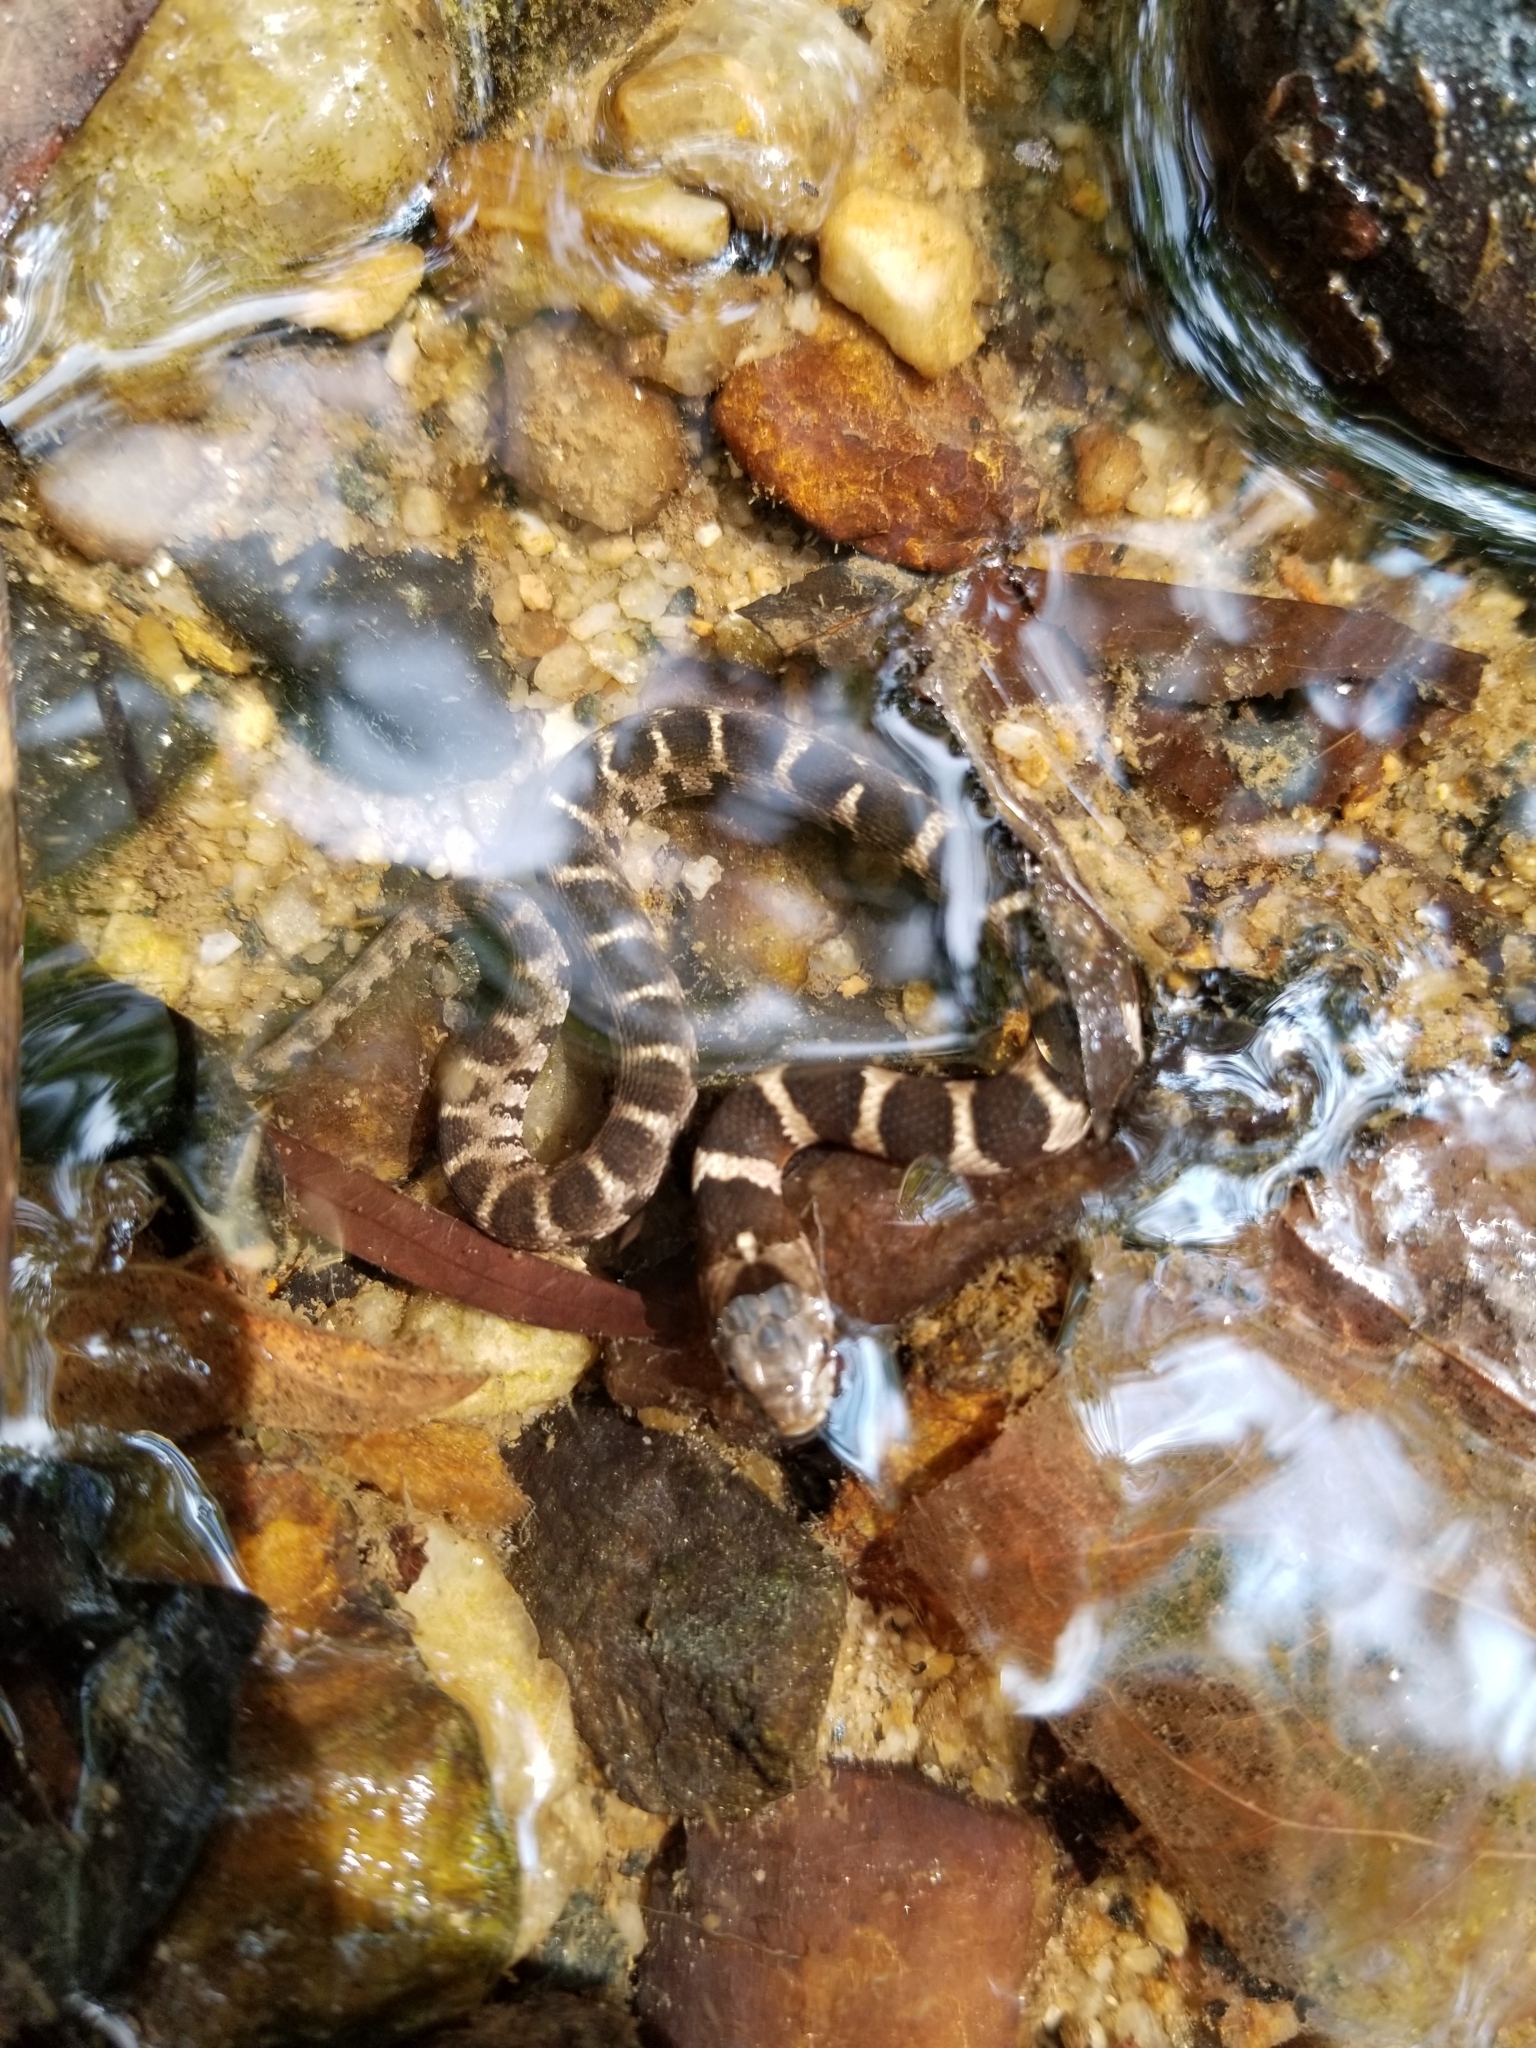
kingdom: Animalia
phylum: Chordata
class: Squamata
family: Colubridae
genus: Nerodia
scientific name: Nerodia sipedon
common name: Northern water snake
